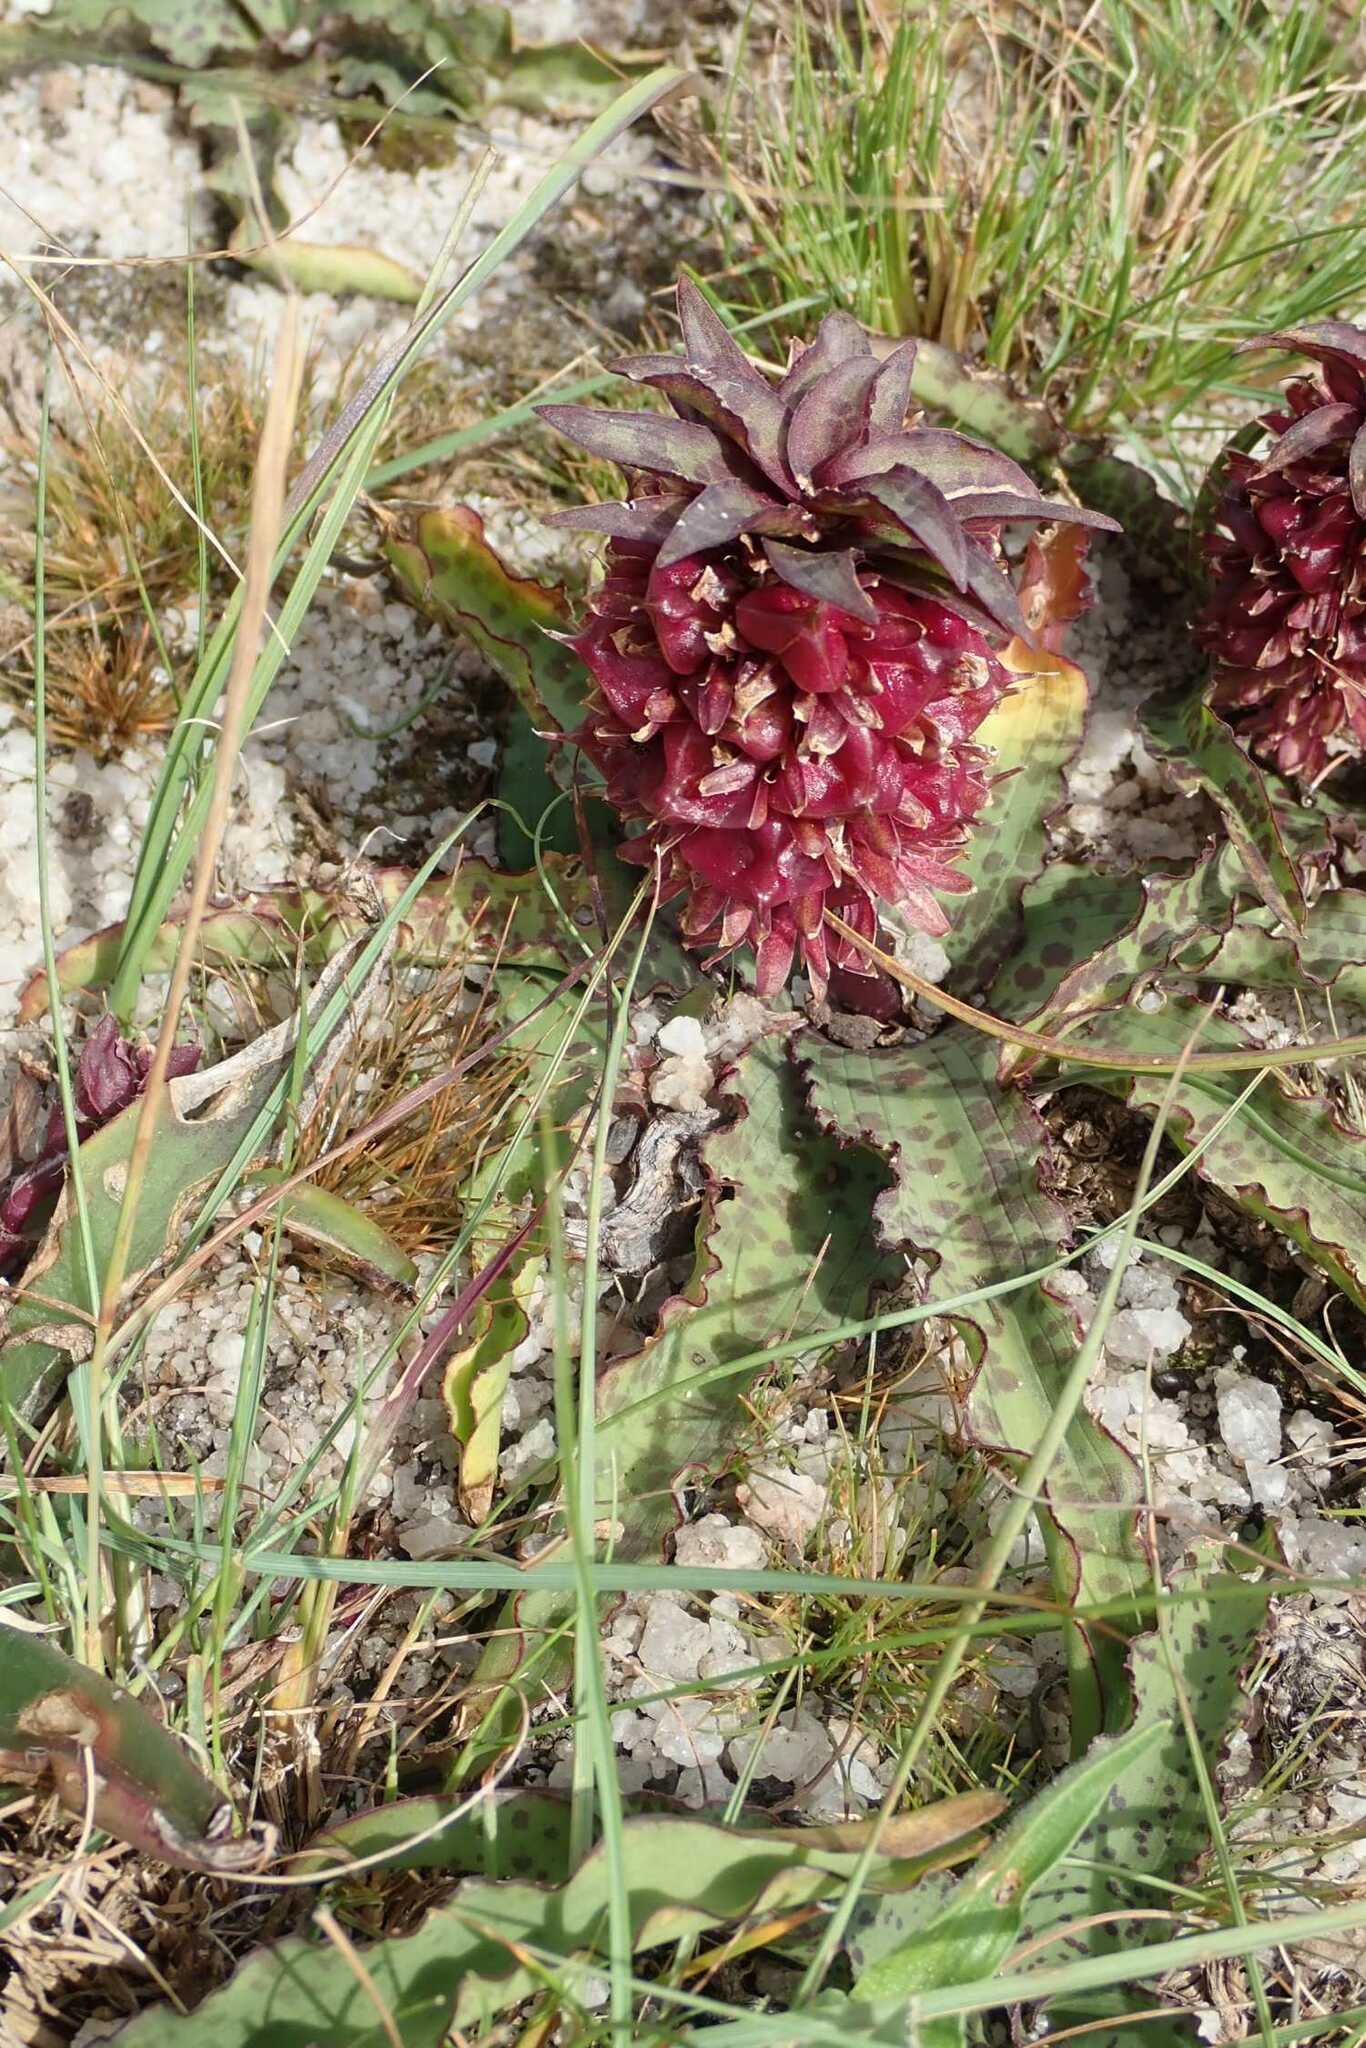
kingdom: Plantae
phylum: Tracheophyta
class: Liliopsida
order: Asparagales
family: Asparagaceae
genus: Eucomis
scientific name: Eucomis vandermerwei
